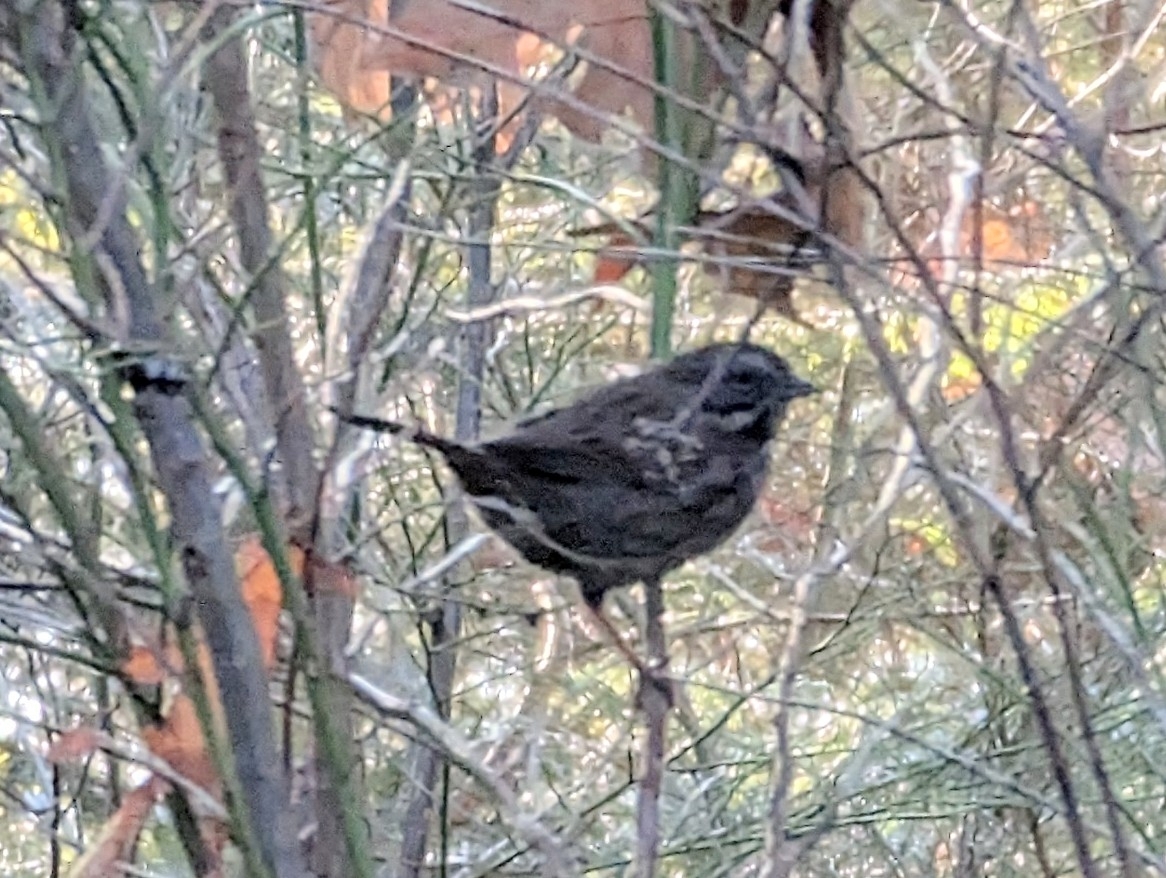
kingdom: Animalia
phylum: Chordata
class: Aves
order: Passeriformes
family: Passerellidae
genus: Melospiza
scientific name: Melospiza melodia
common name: Song sparrow
